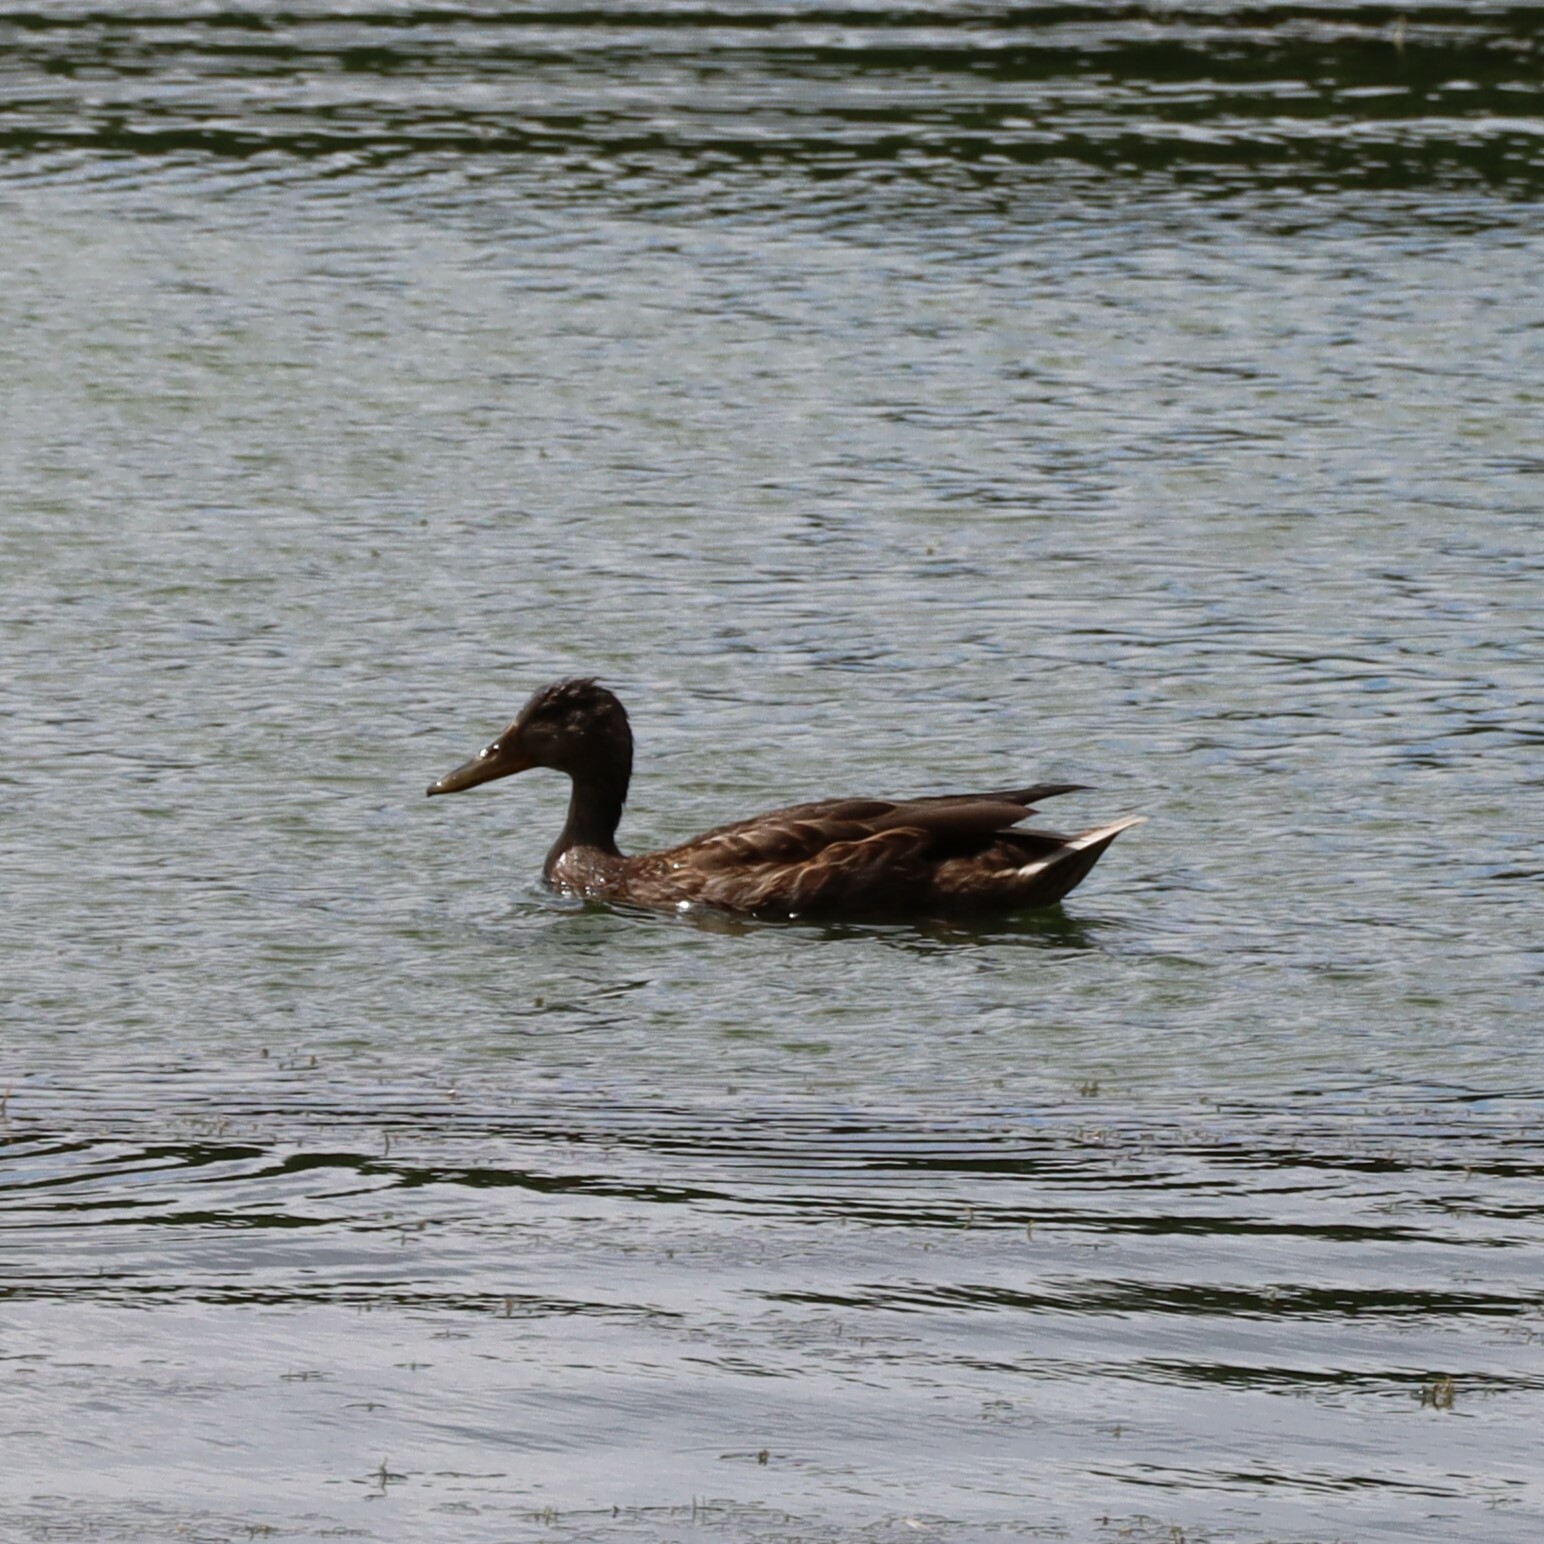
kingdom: Animalia
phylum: Chordata
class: Aves
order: Anseriformes
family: Anatidae
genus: Anas
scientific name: Anas platyrhynchos
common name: Mallard
